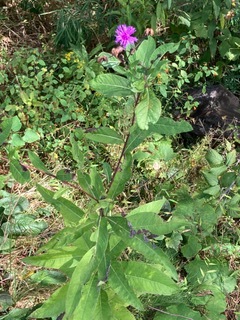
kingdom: Plantae
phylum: Tracheophyta
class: Magnoliopsida
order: Asterales
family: Asteraceae
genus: Vernonia
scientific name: Vernonia gigantea
